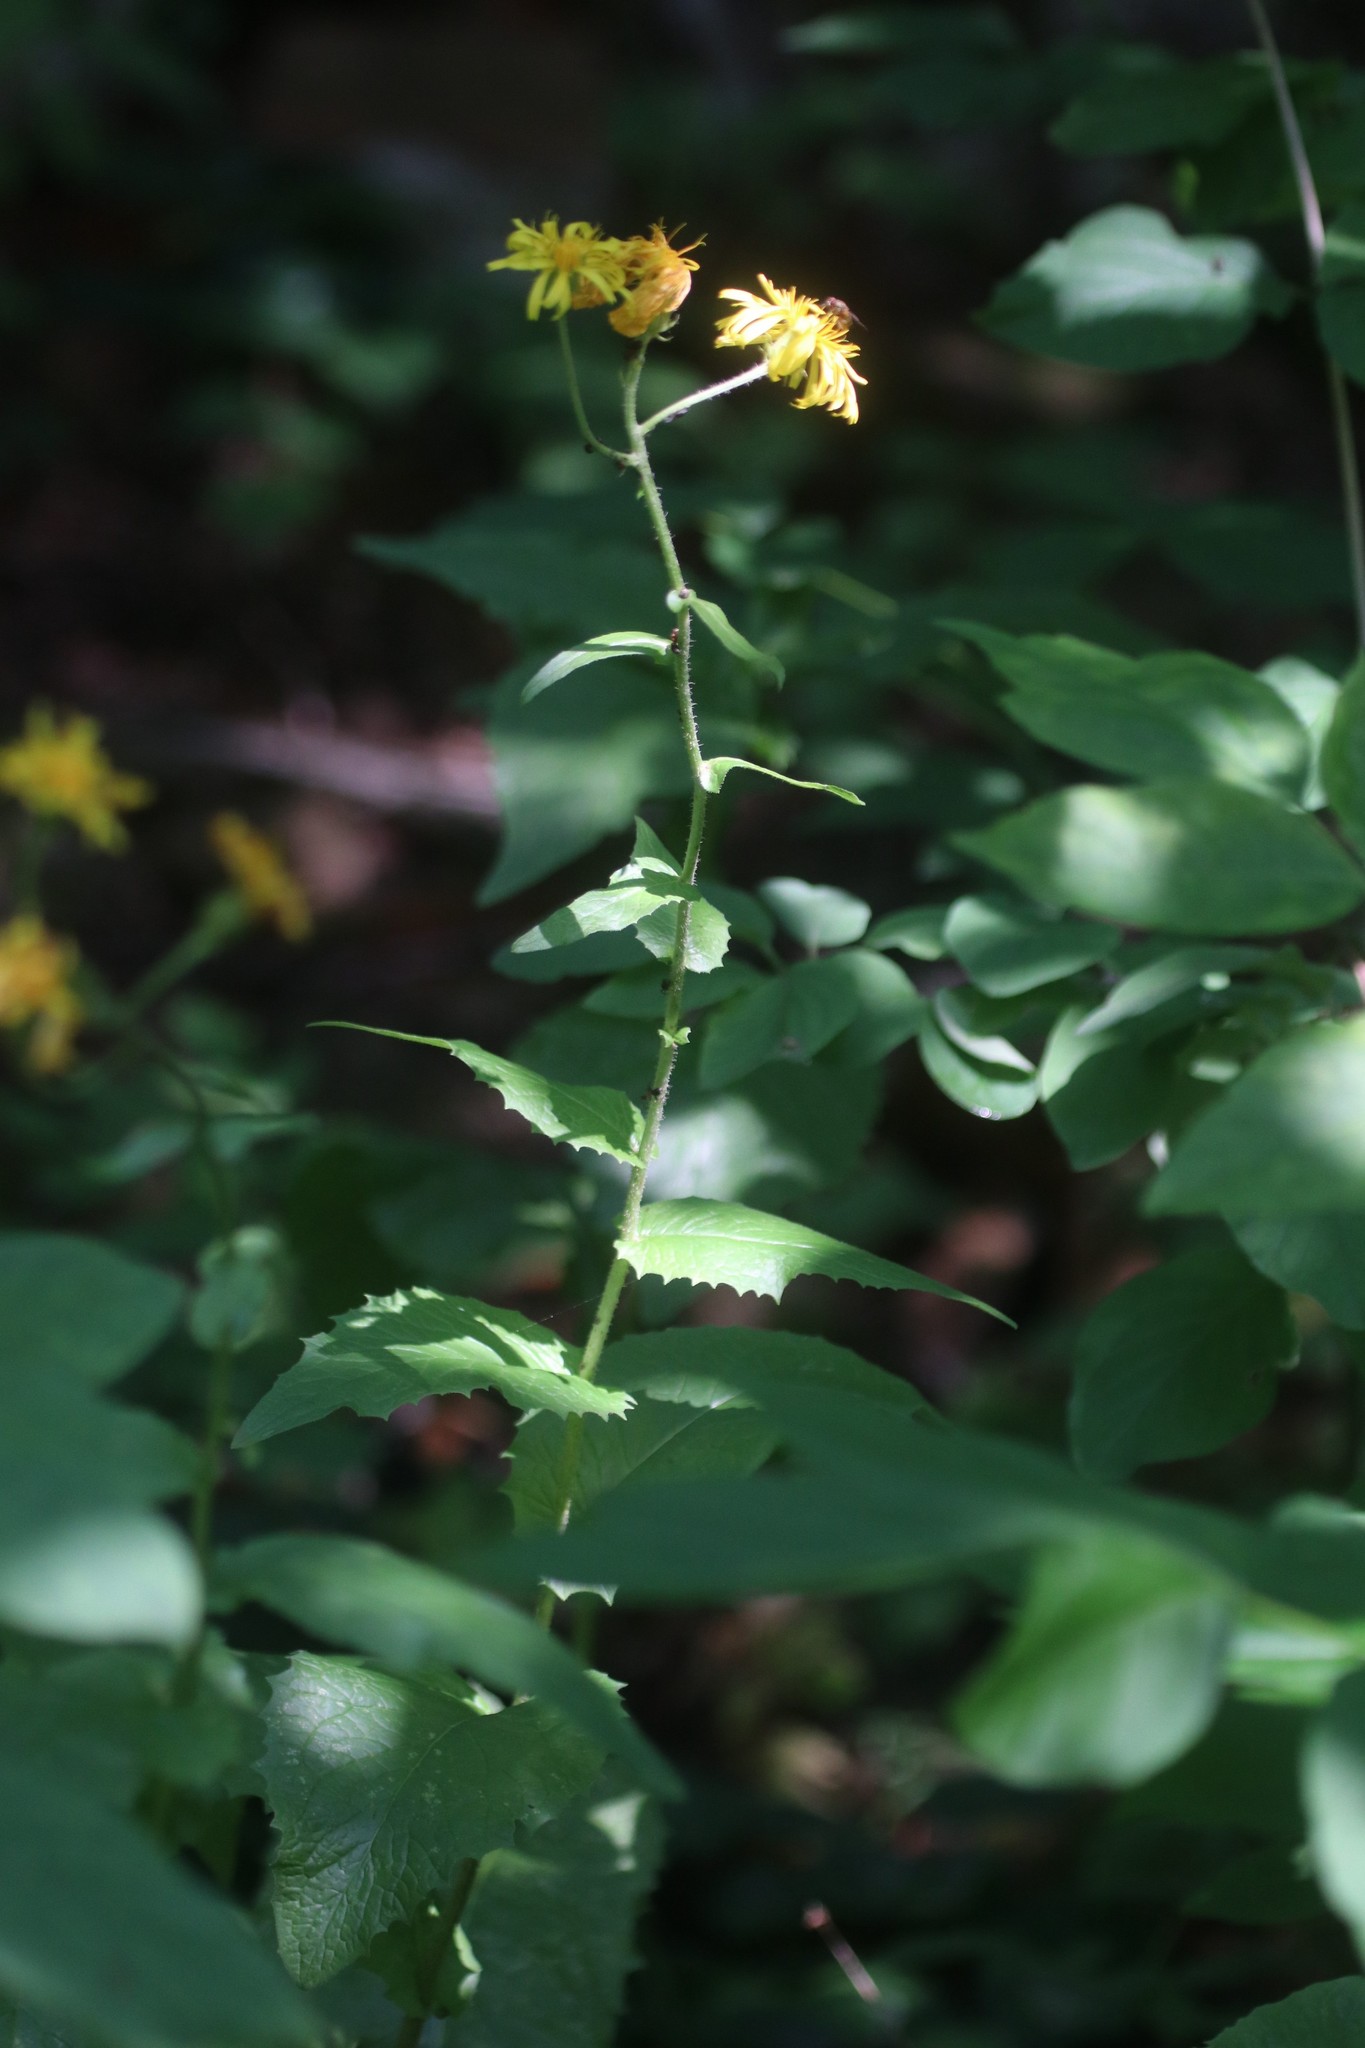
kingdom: Plantae
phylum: Tracheophyta
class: Magnoliopsida
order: Asterales
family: Asteraceae
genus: Crepis
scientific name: Crepis sibirica
